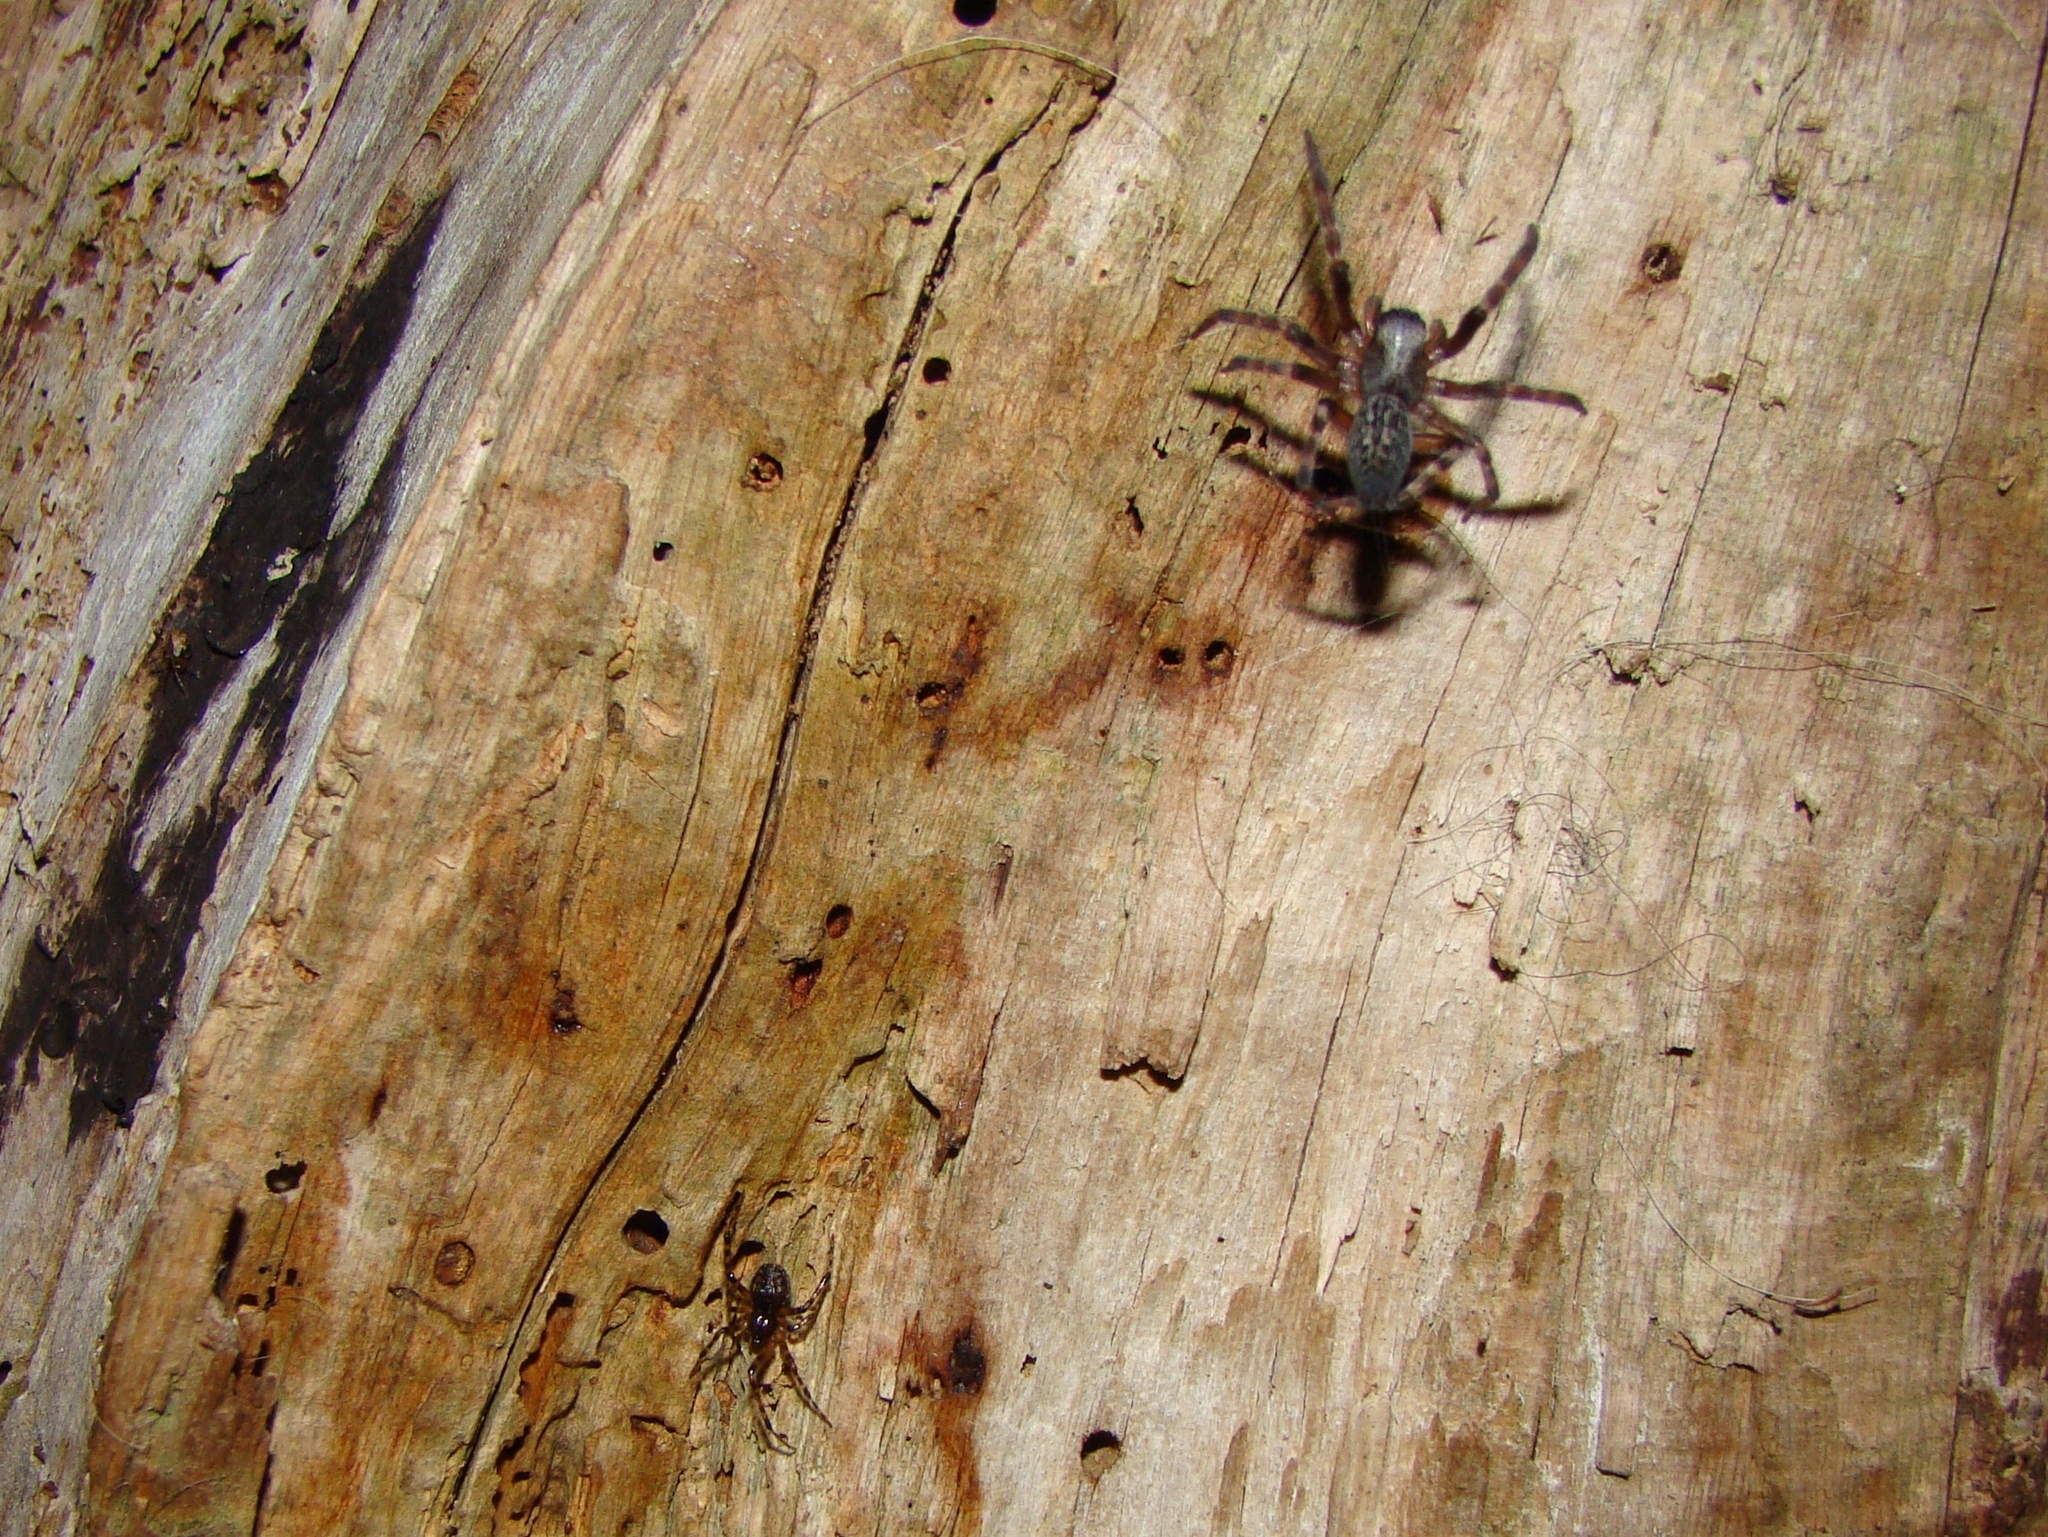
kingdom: Animalia
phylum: Arthropoda
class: Arachnida
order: Araneae
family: Desidae
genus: Badumna
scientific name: Badumna longinqua
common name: Gray house spider
